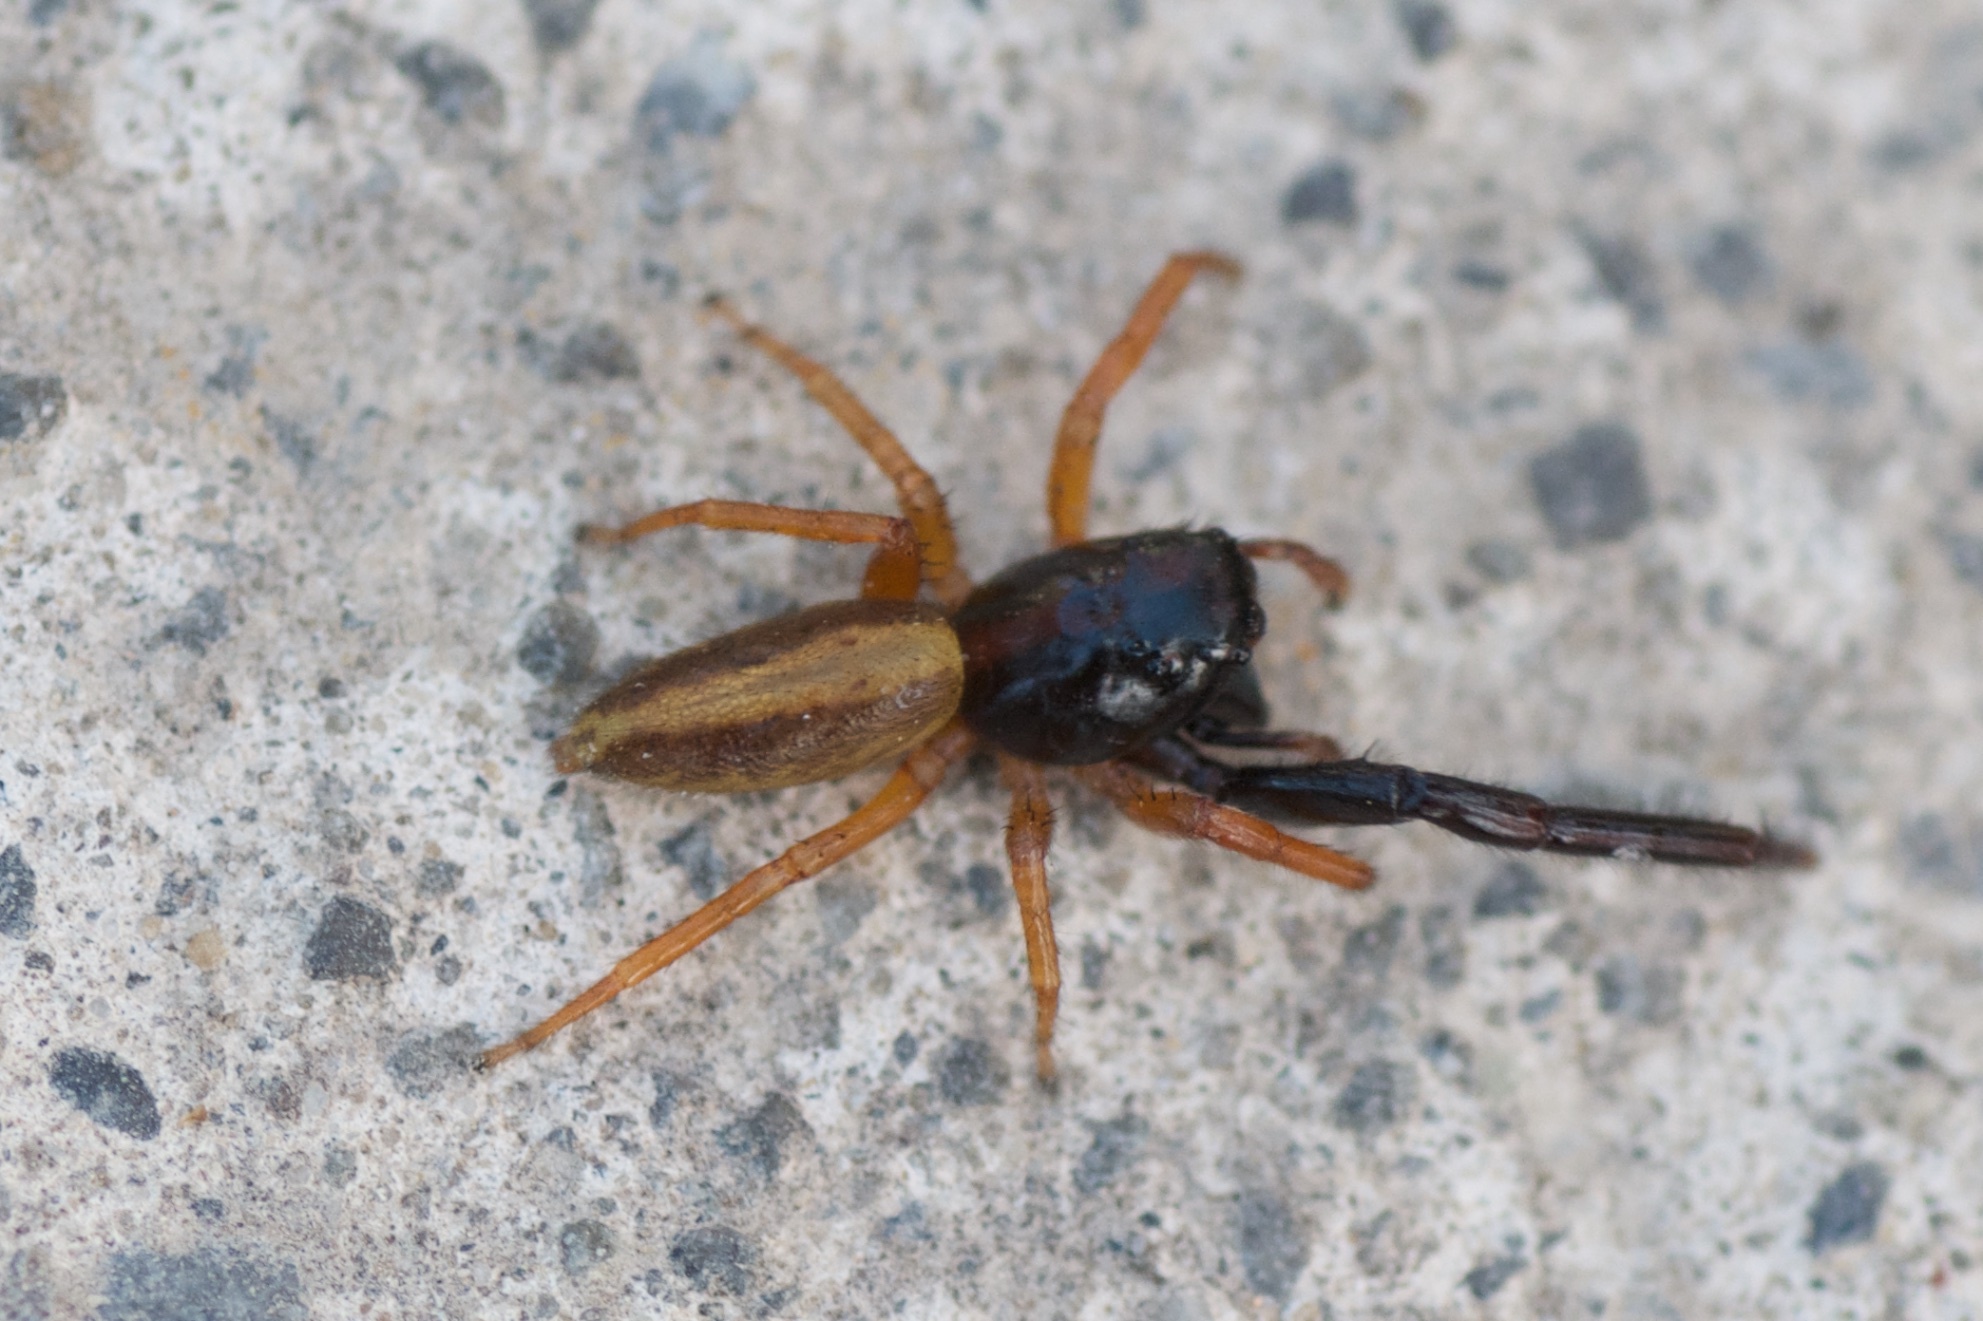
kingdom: Animalia
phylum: Arthropoda
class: Arachnida
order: Araneae
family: Salticidae
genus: Trite
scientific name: Trite planiceps
